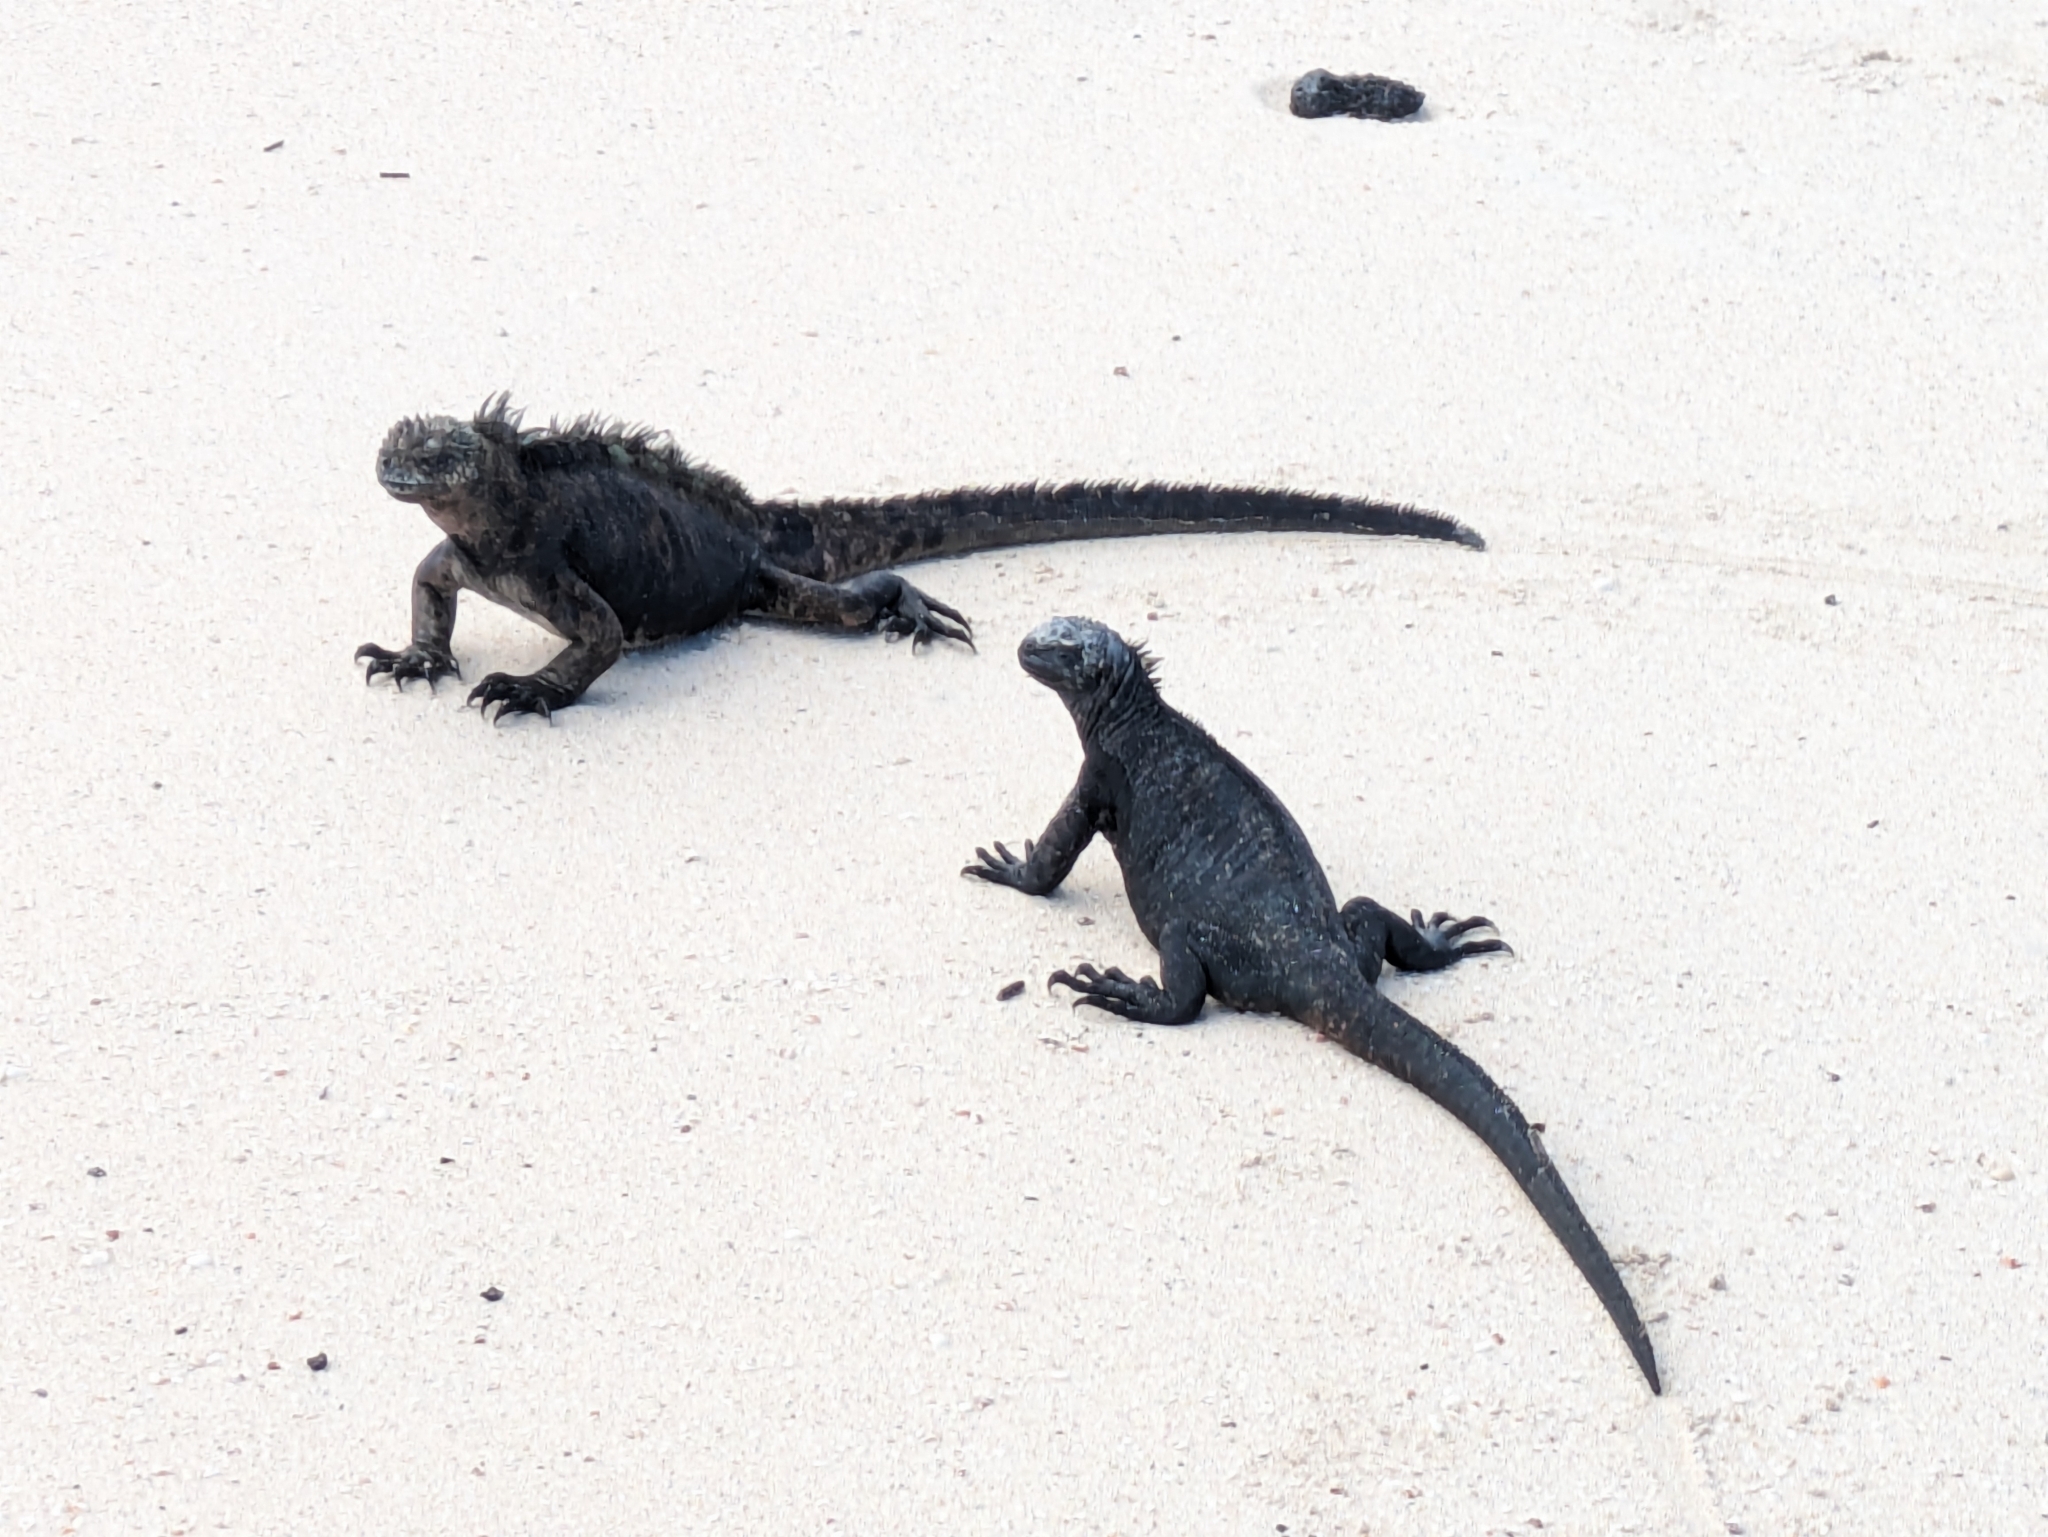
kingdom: Animalia
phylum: Chordata
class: Squamata
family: Iguanidae
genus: Amblyrhynchus
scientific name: Amblyrhynchus cristatus
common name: Marine iguana
